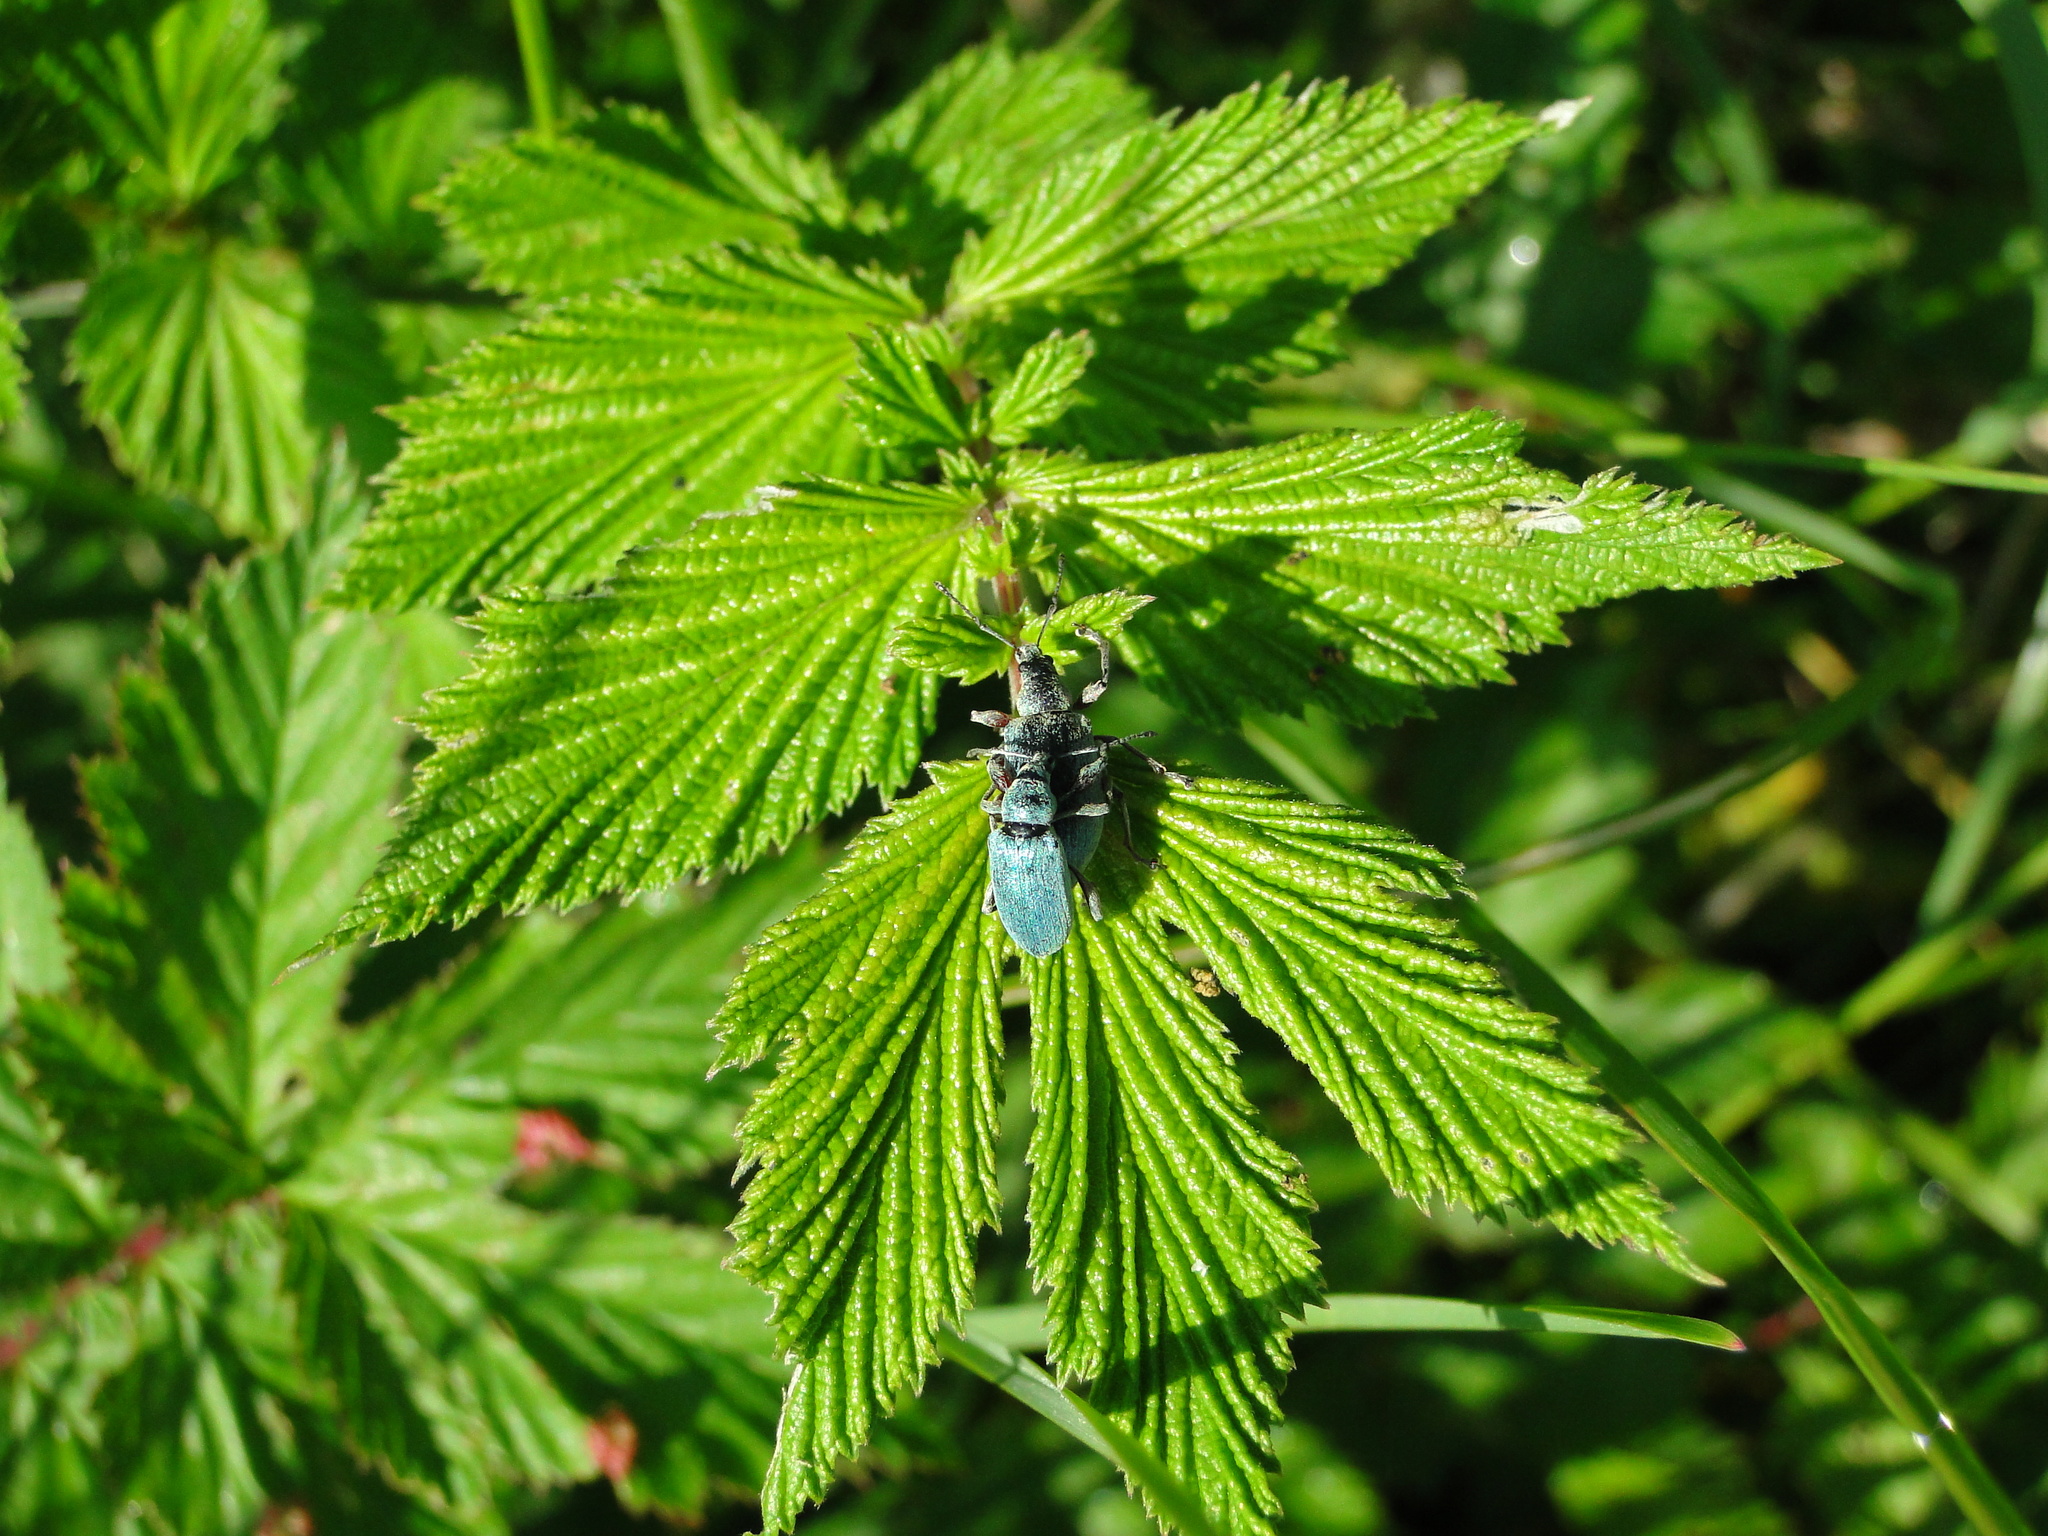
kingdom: Animalia
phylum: Arthropoda
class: Insecta
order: Coleoptera
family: Curculionidae
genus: Phyllobius
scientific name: Phyllobius pomaceus
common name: Green nettle weevil
